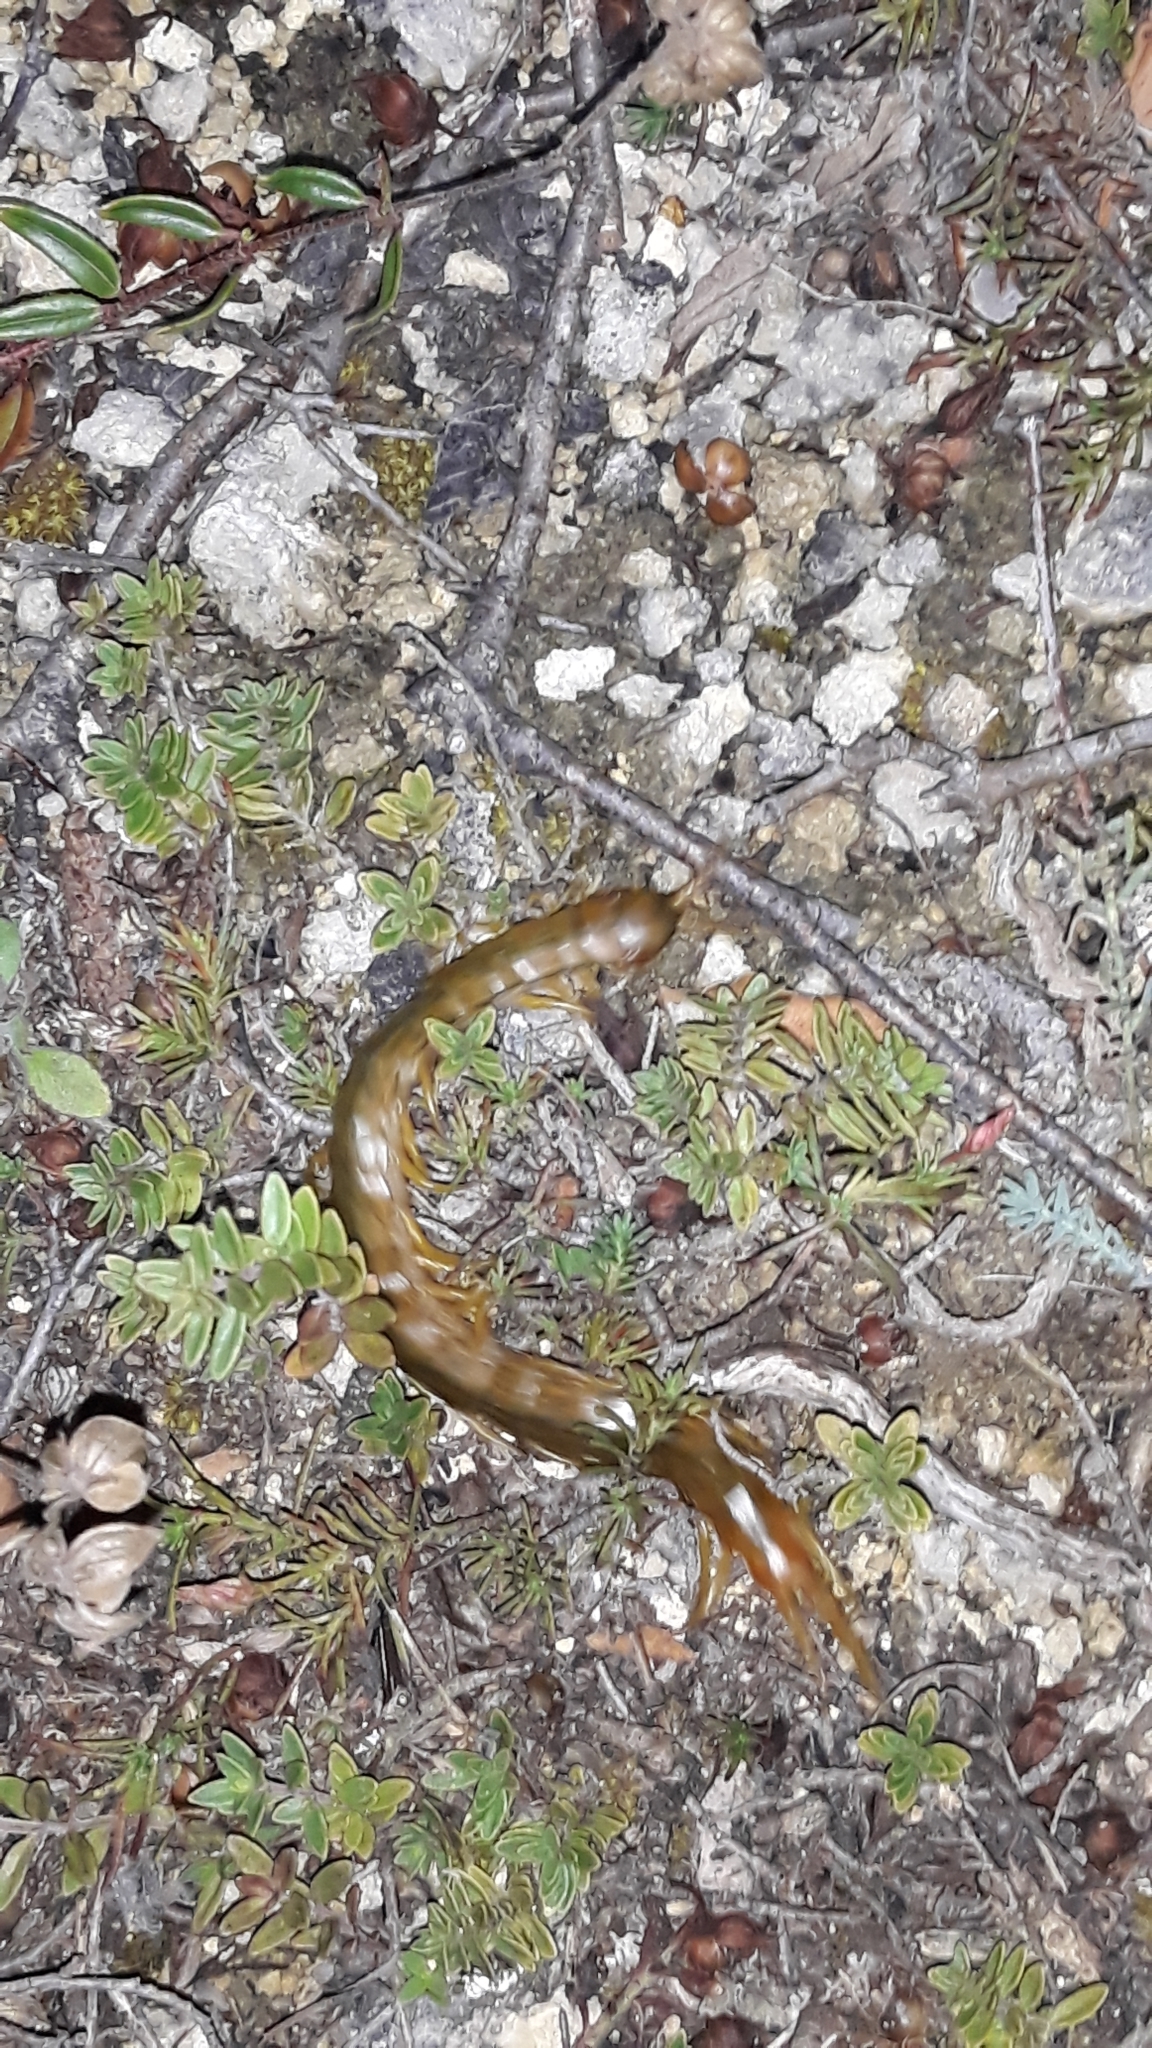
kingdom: Animalia
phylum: Arthropoda
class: Chilopoda
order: Scolopendromorpha
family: Scolopendridae
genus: Scolopendra
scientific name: Scolopendra cingulata
